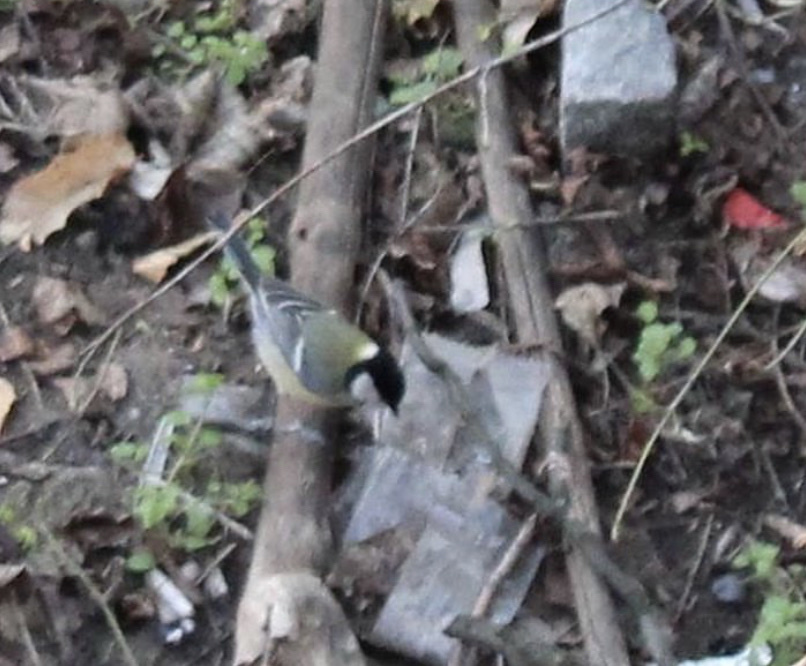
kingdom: Animalia
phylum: Chordata
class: Aves
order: Passeriformes
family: Paridae
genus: Parus
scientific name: Parus major
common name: Great tit
